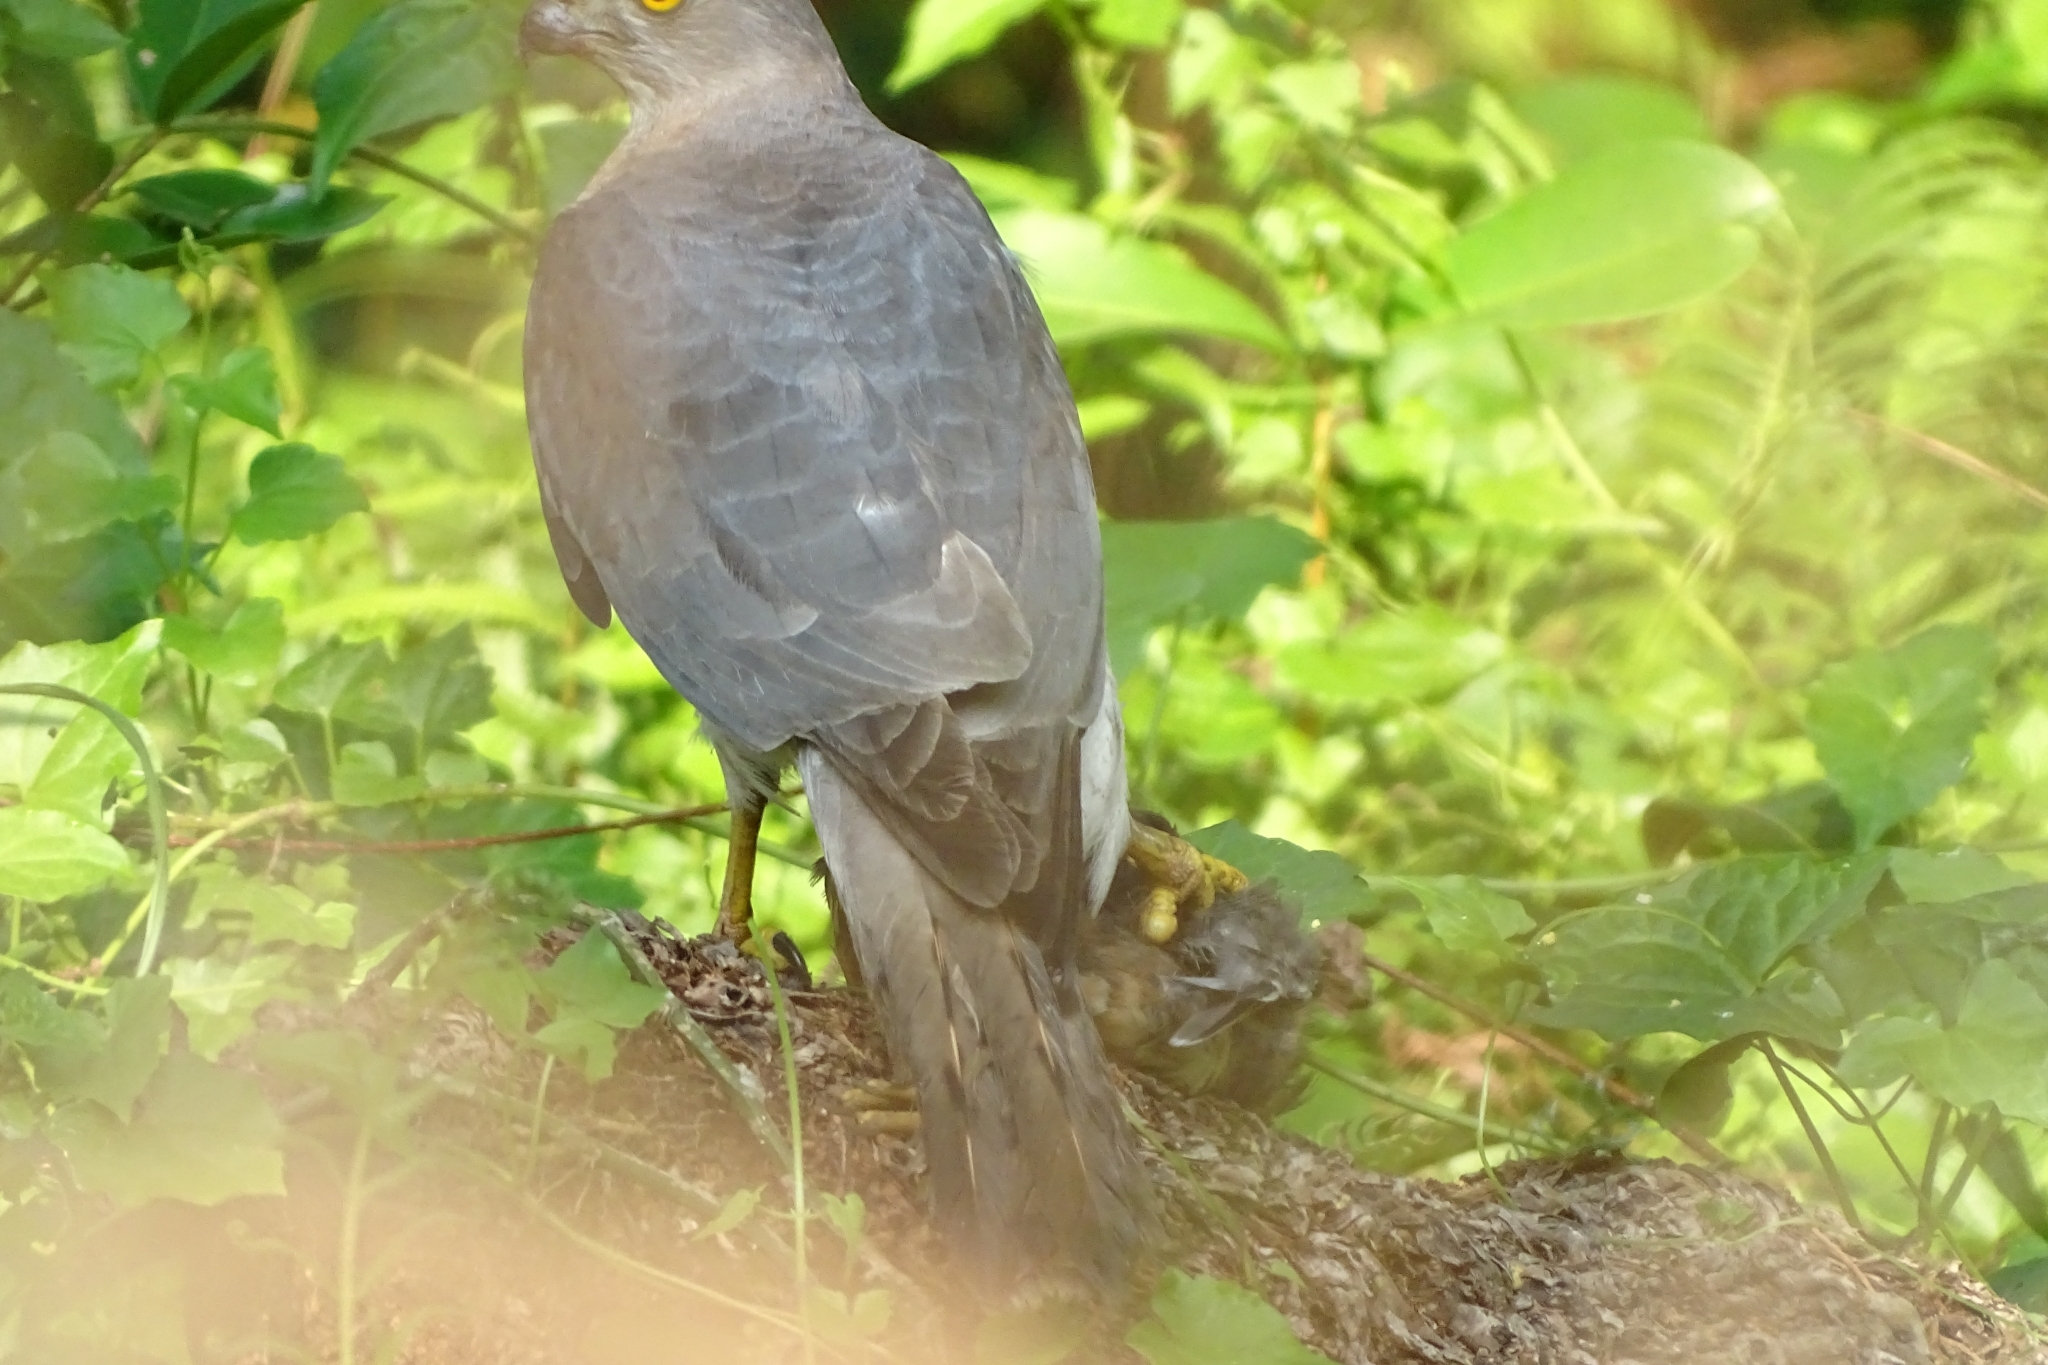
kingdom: Animalia
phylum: Chordata
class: Aves
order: Accipitriformes
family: Accipitridae
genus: Accipiter
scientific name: Accipiter badius
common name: Shikra
